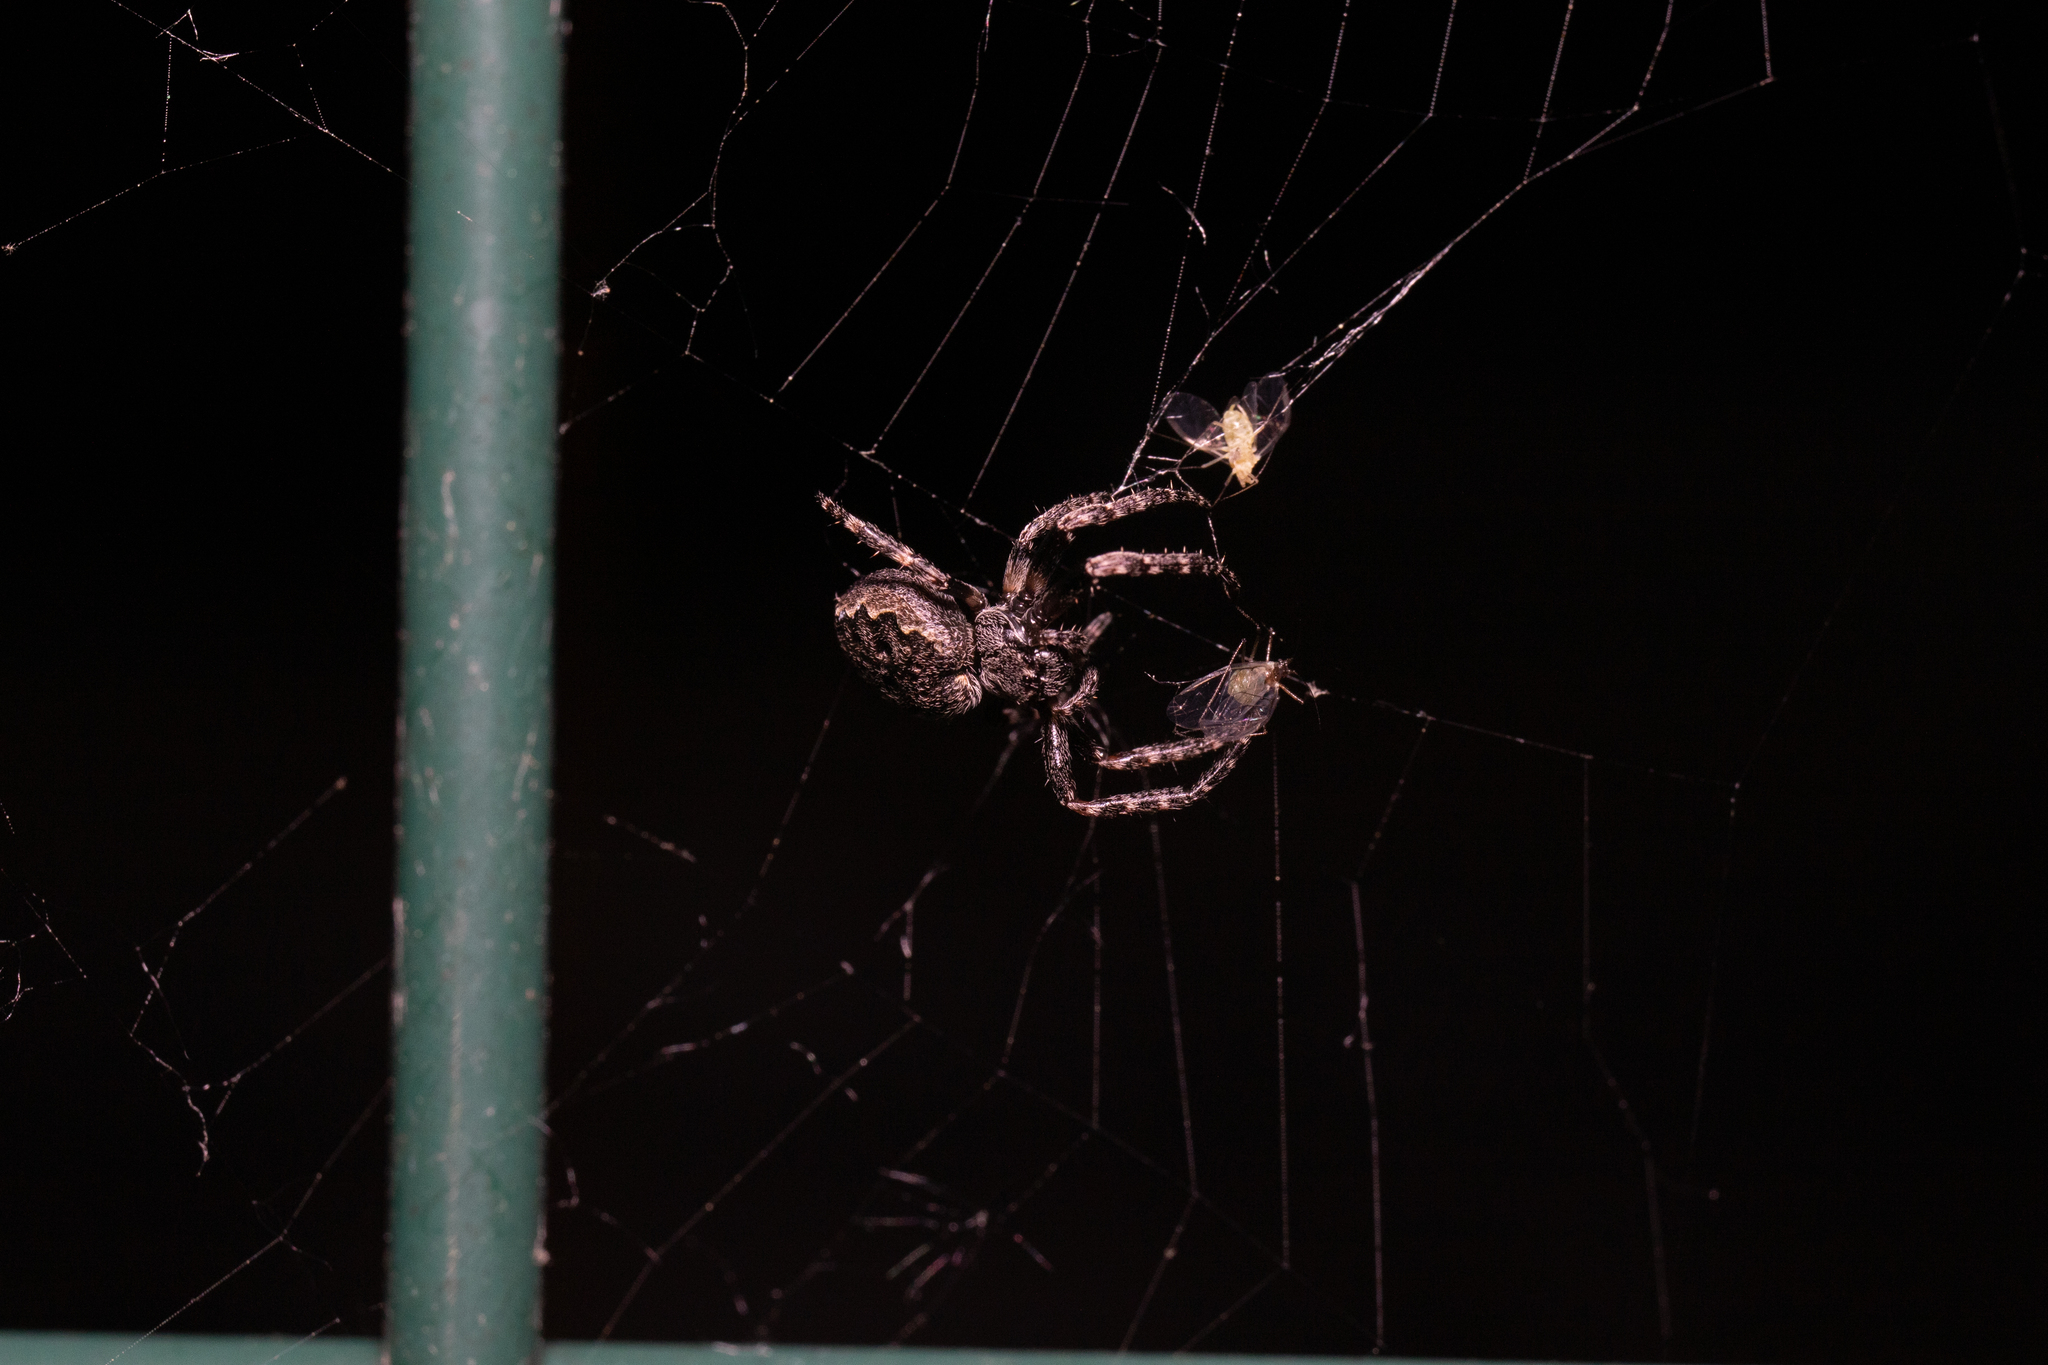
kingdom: Animalia
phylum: Arthropoda
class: Arachnida
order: Araneae
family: Araneidae
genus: Nuctenea
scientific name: Nuctenea umbratica
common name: Toad spider
